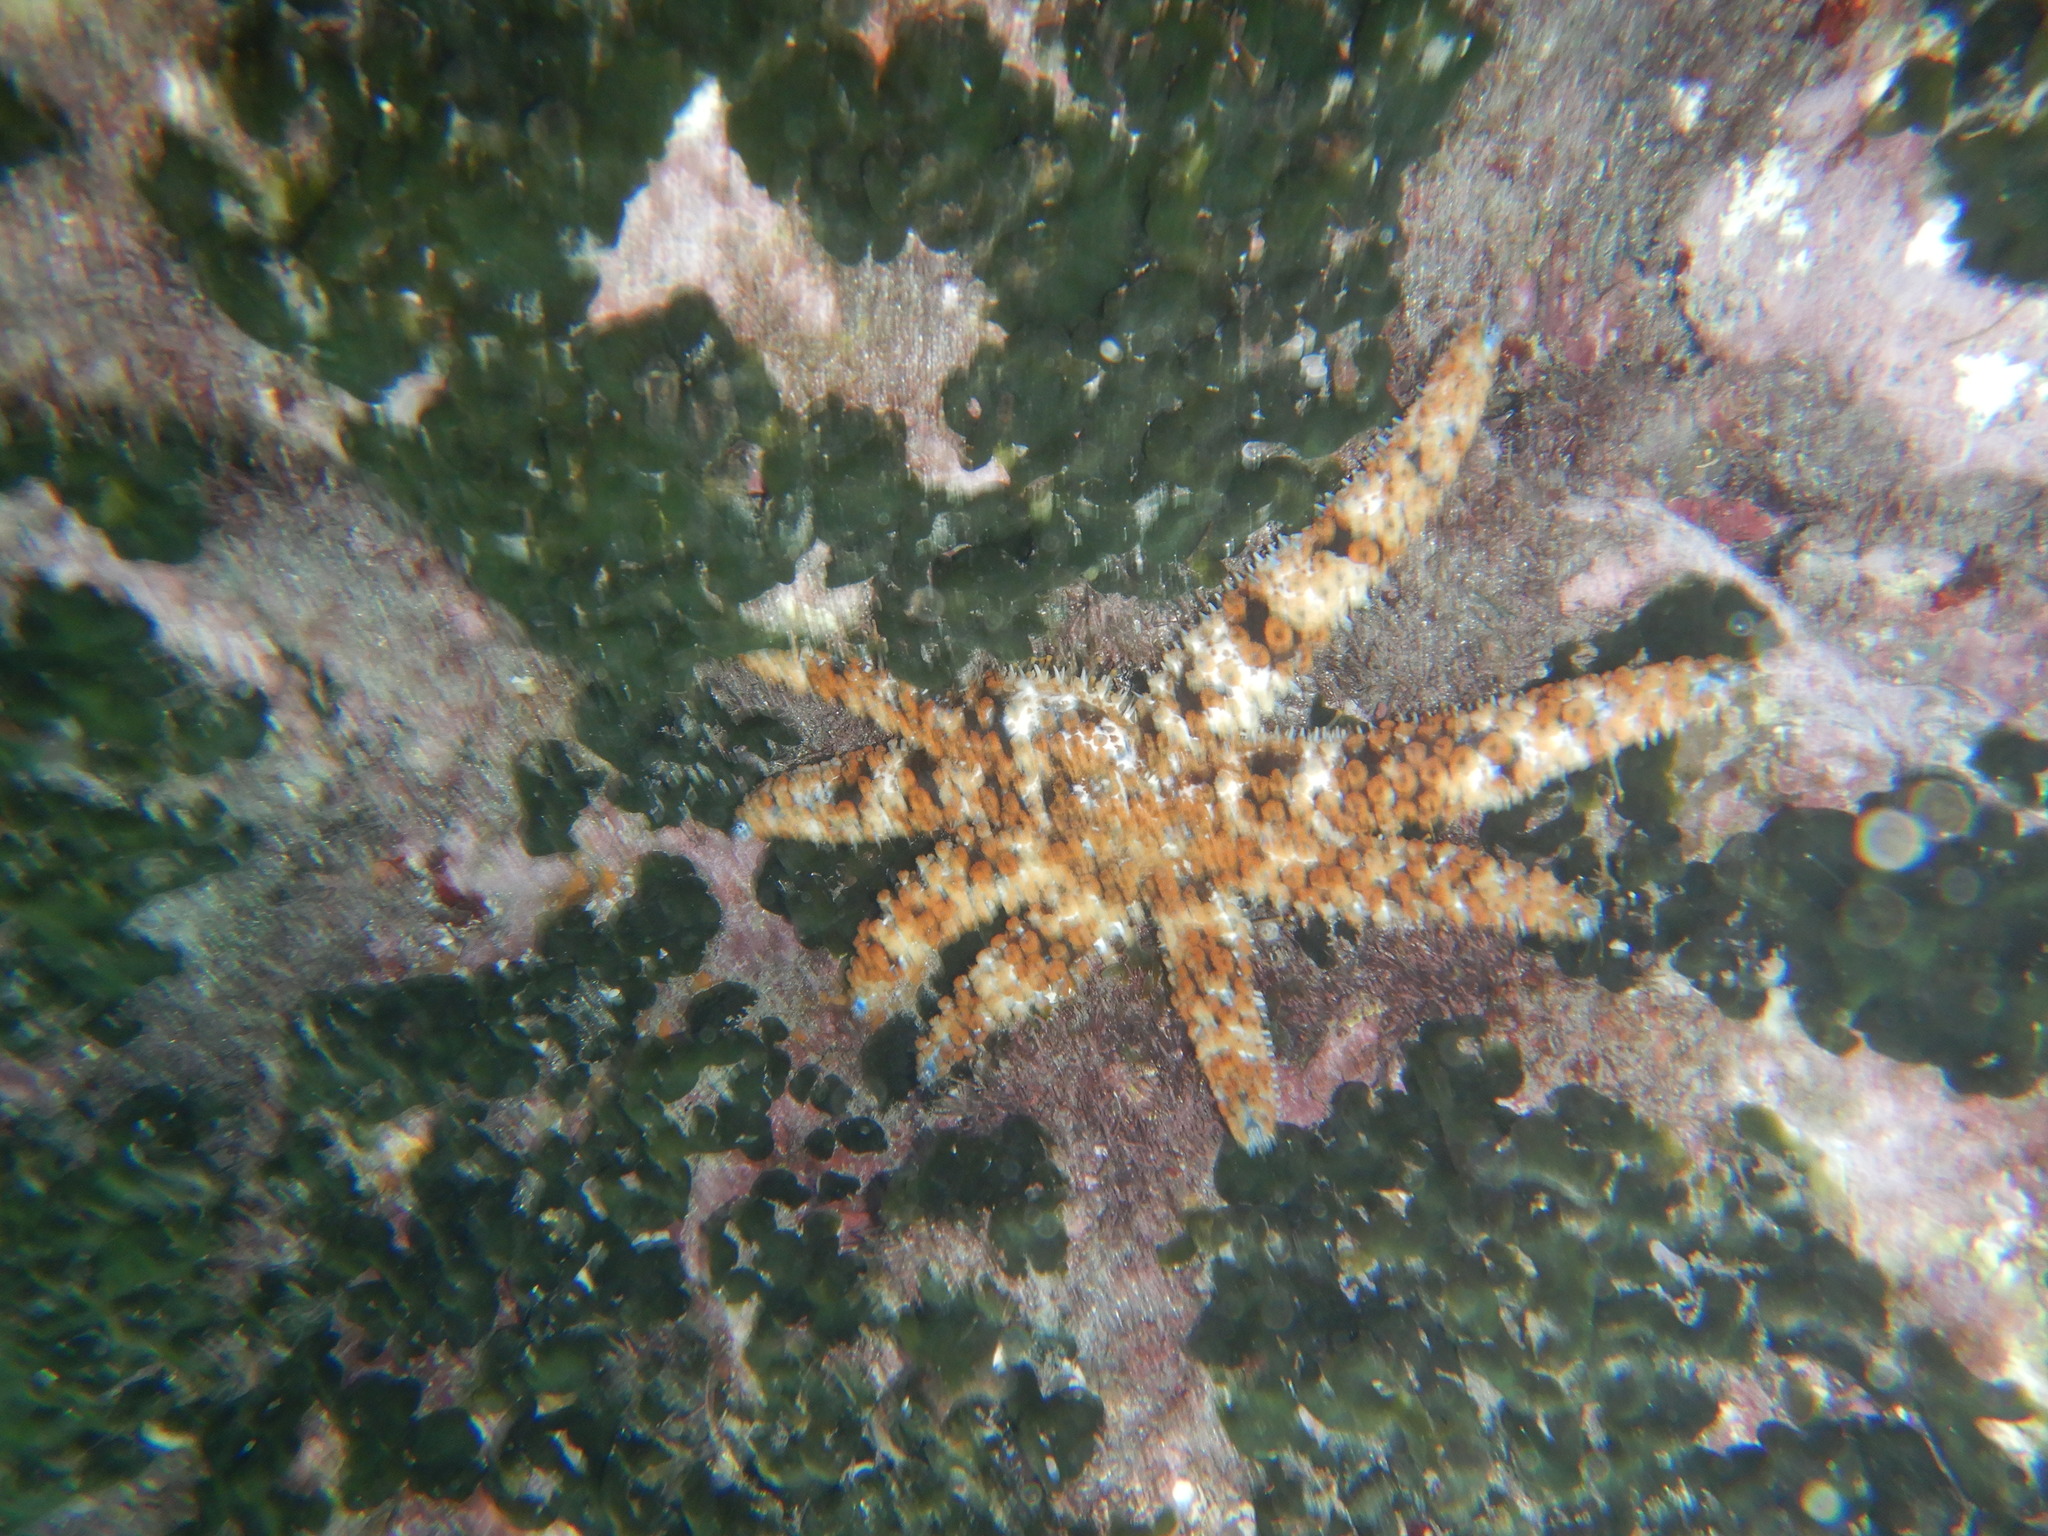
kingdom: Animalia
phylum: Echinodermata
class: Asteroidea
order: Forcipulatida
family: Asteriidae
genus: Coscinasterias
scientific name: Coscinasterias tenuispina
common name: Blue spiny starfish
